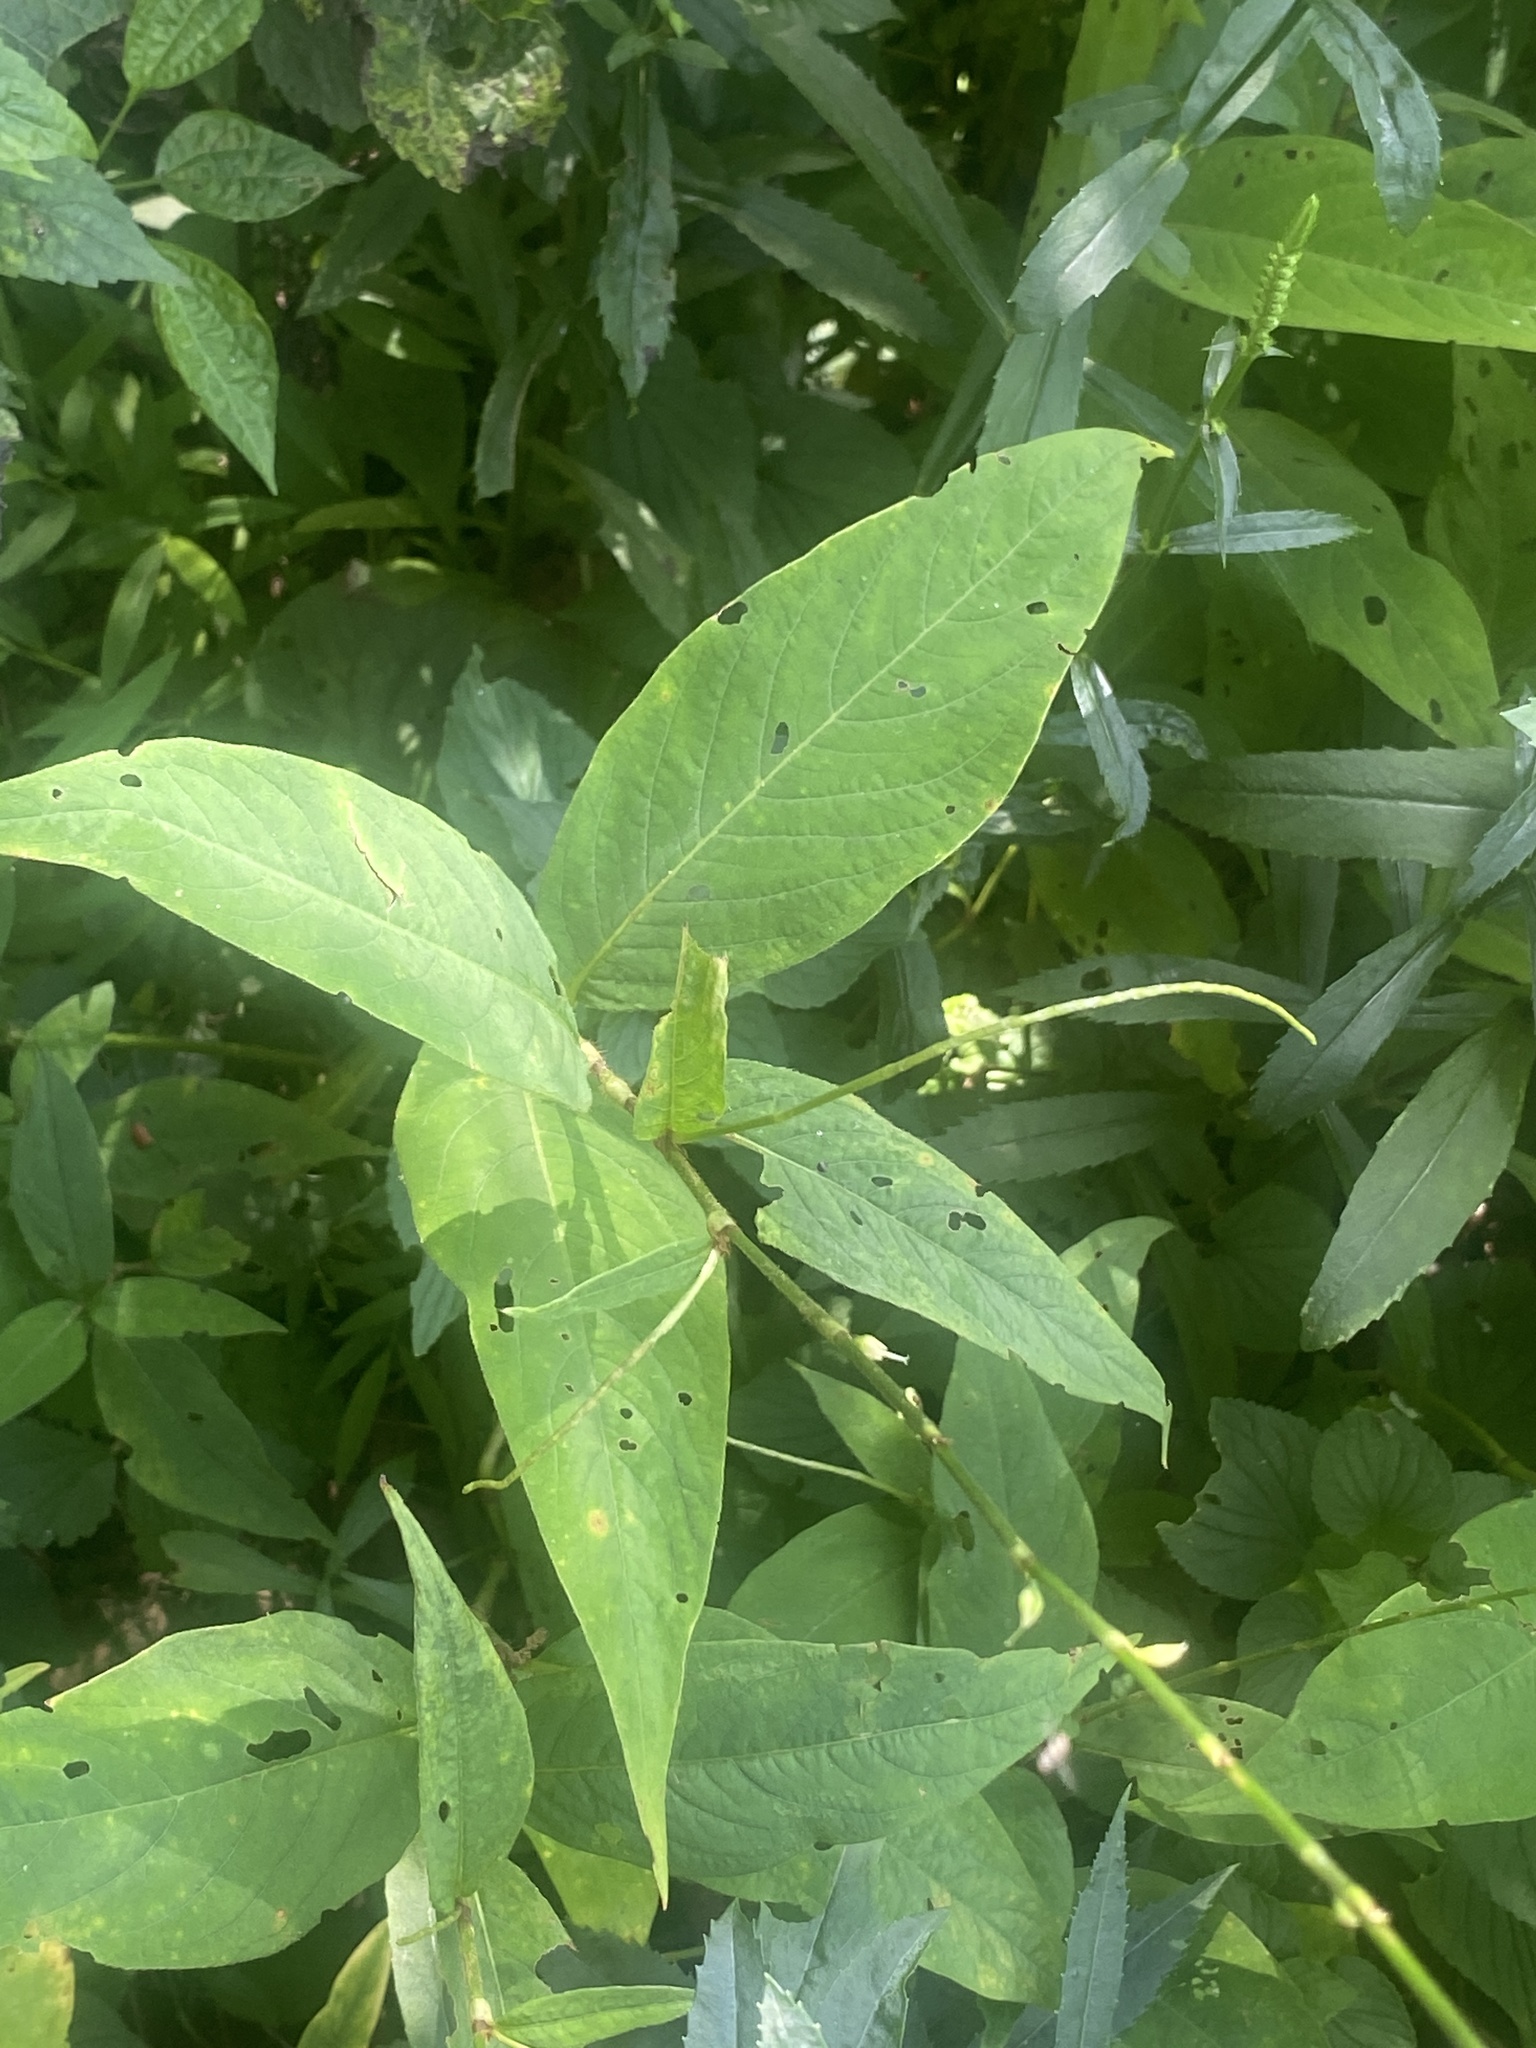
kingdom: Plantae
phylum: Tracheophyta
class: Magnoliopsida
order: Caryophyllales
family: Polygonaceae
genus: Persicaria
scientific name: Persicaria virginiana
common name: Jumpseed
